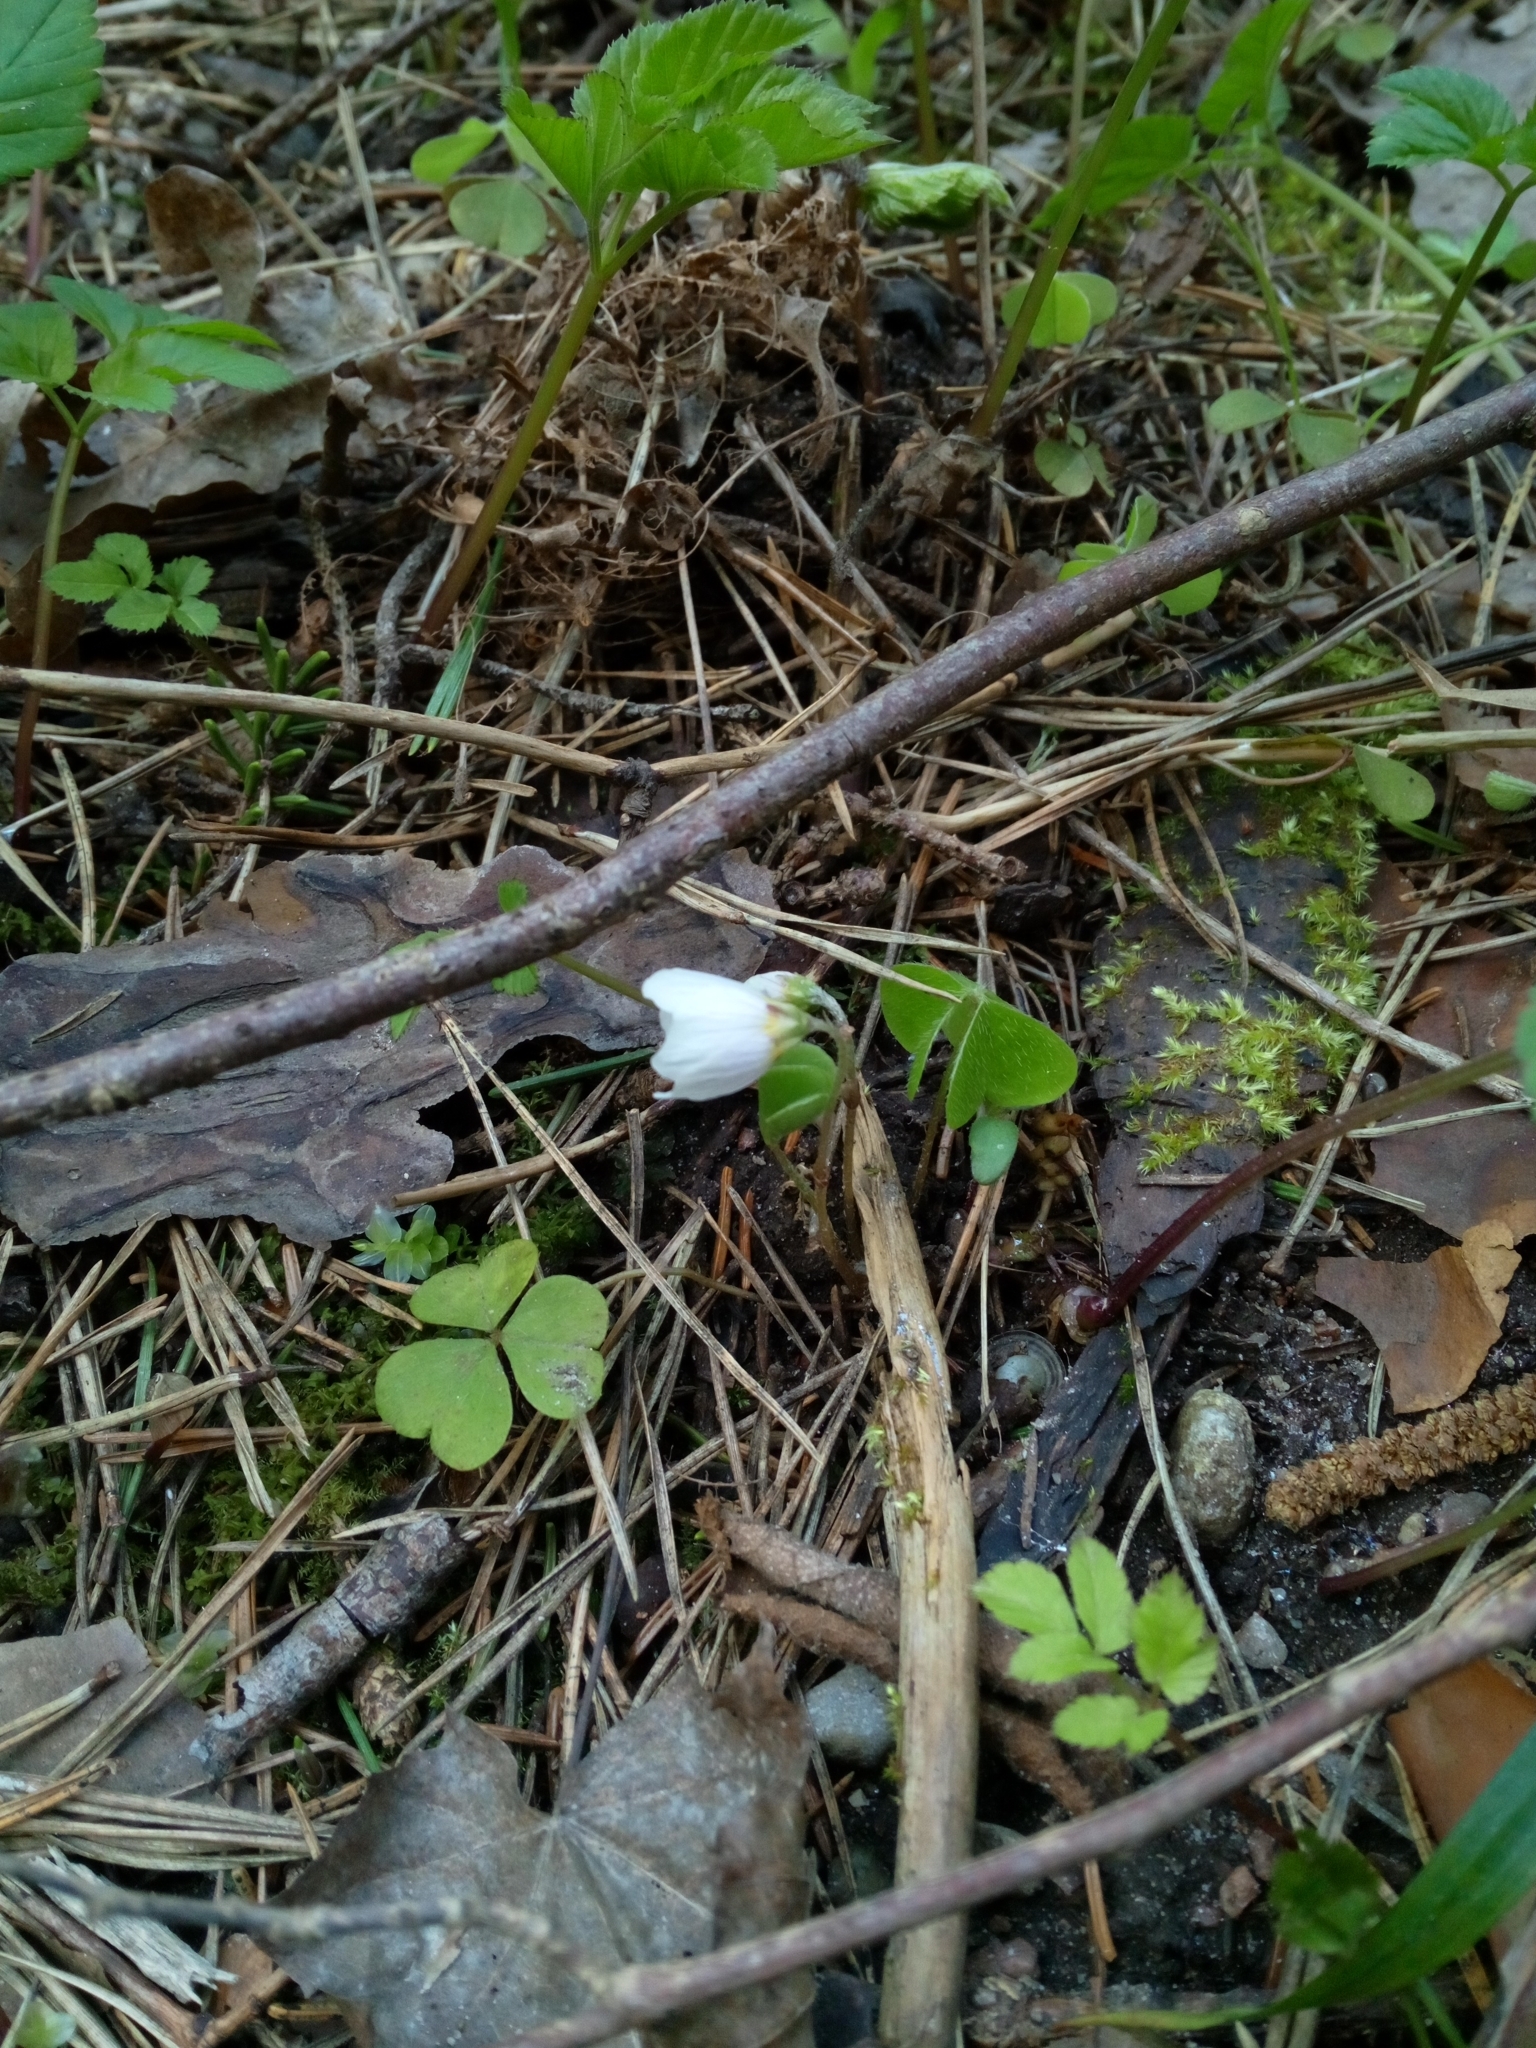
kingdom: Plantae
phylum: Tracheophyta
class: Magnoliopsida
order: Oxalidales
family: Oxalidaceae
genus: Oxalis
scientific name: Oxalis acetosella
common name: Wood-sorrel
